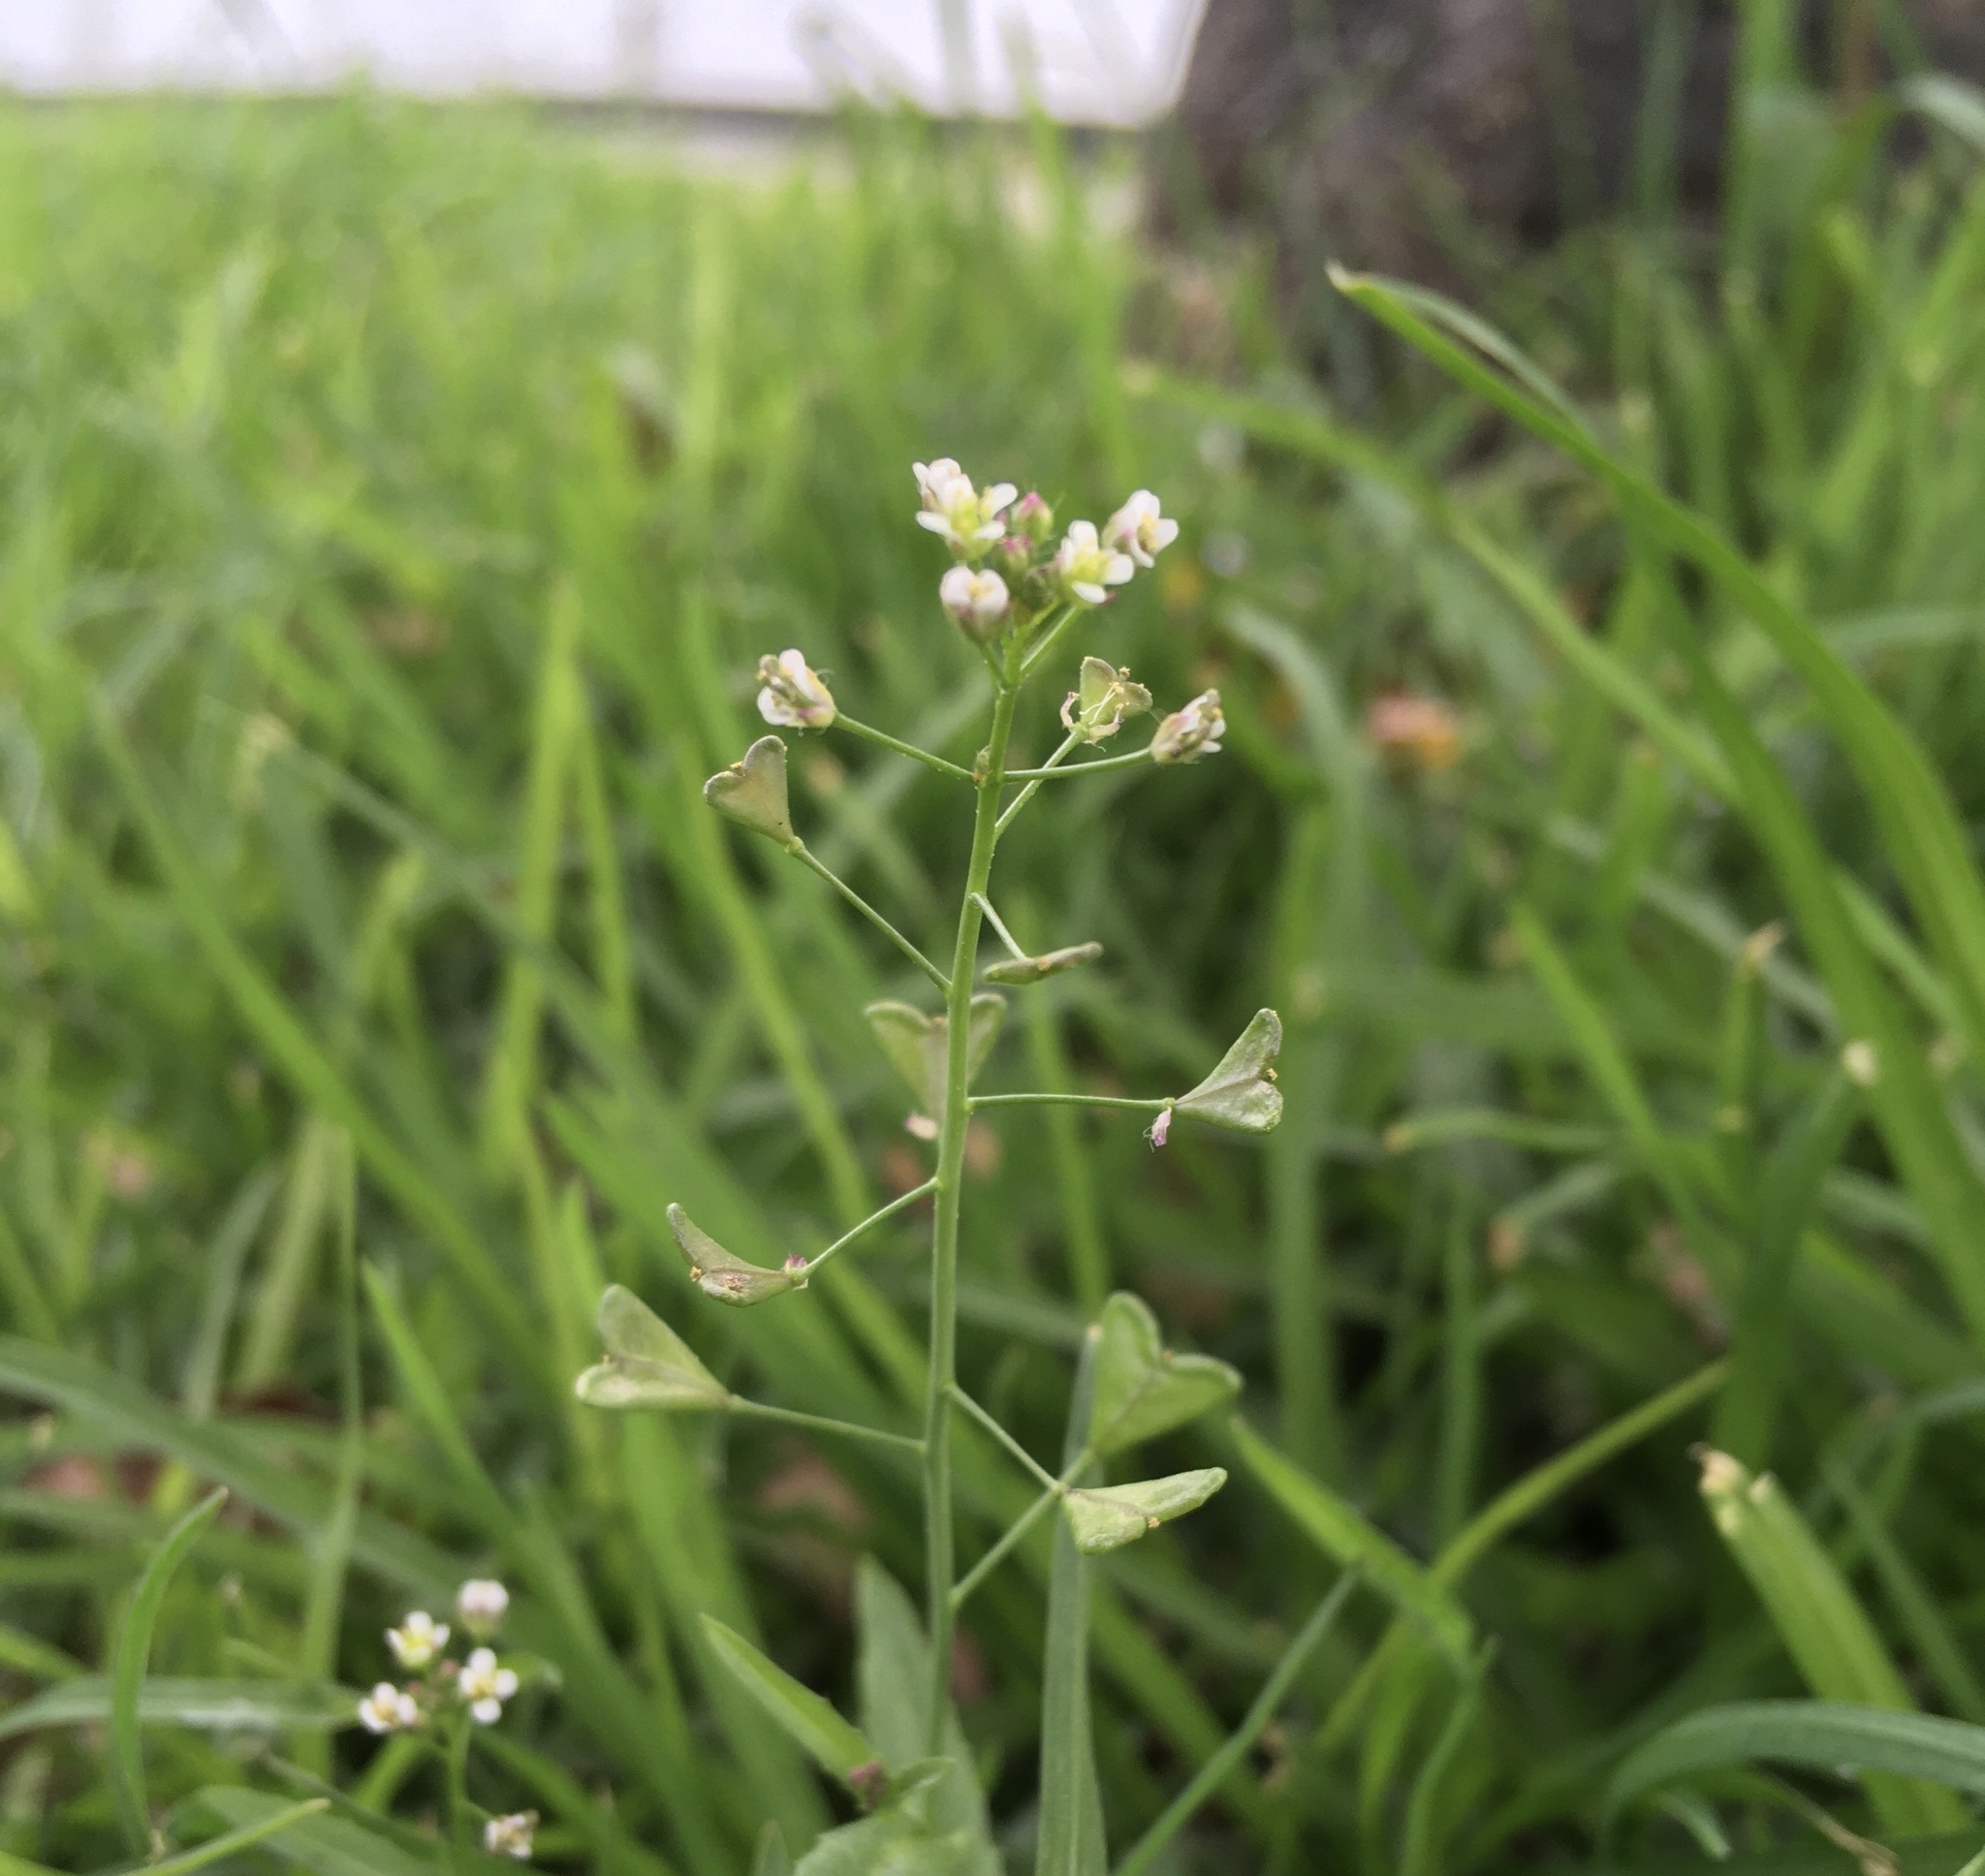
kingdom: Plantae
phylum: Tracheophyta
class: Magnoliopsida
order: Brassicales
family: Brassicaceae
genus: Capsella
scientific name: Capsella bursa-pastoris
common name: Shepherd's purse
